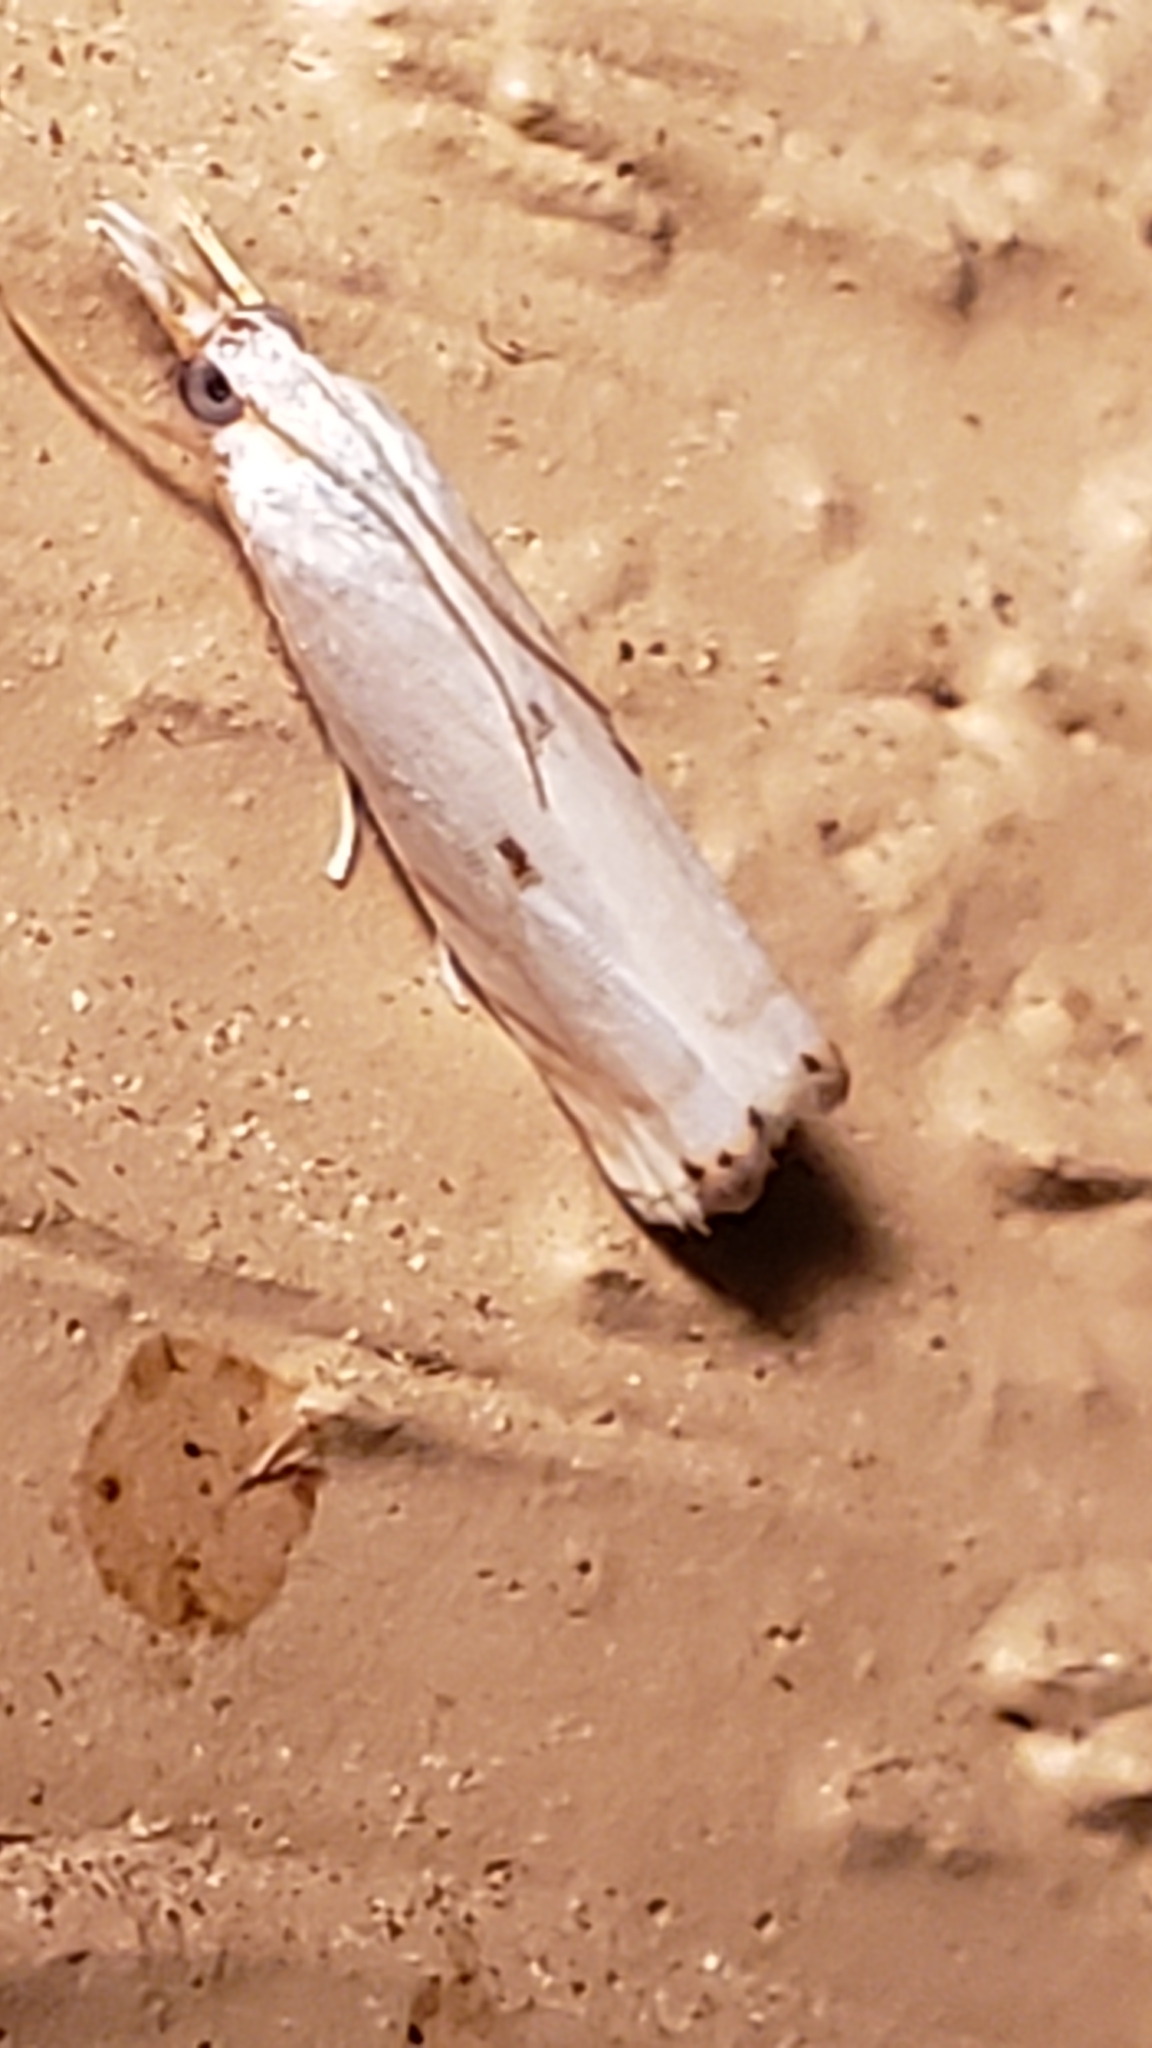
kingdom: Animalia
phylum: Arthropoda
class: Insecta
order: Lepidoptera
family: Crambidae
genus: Microcrambus
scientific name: Microcrambus biguttellus
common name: Gold-stripe grass-veneer moth
